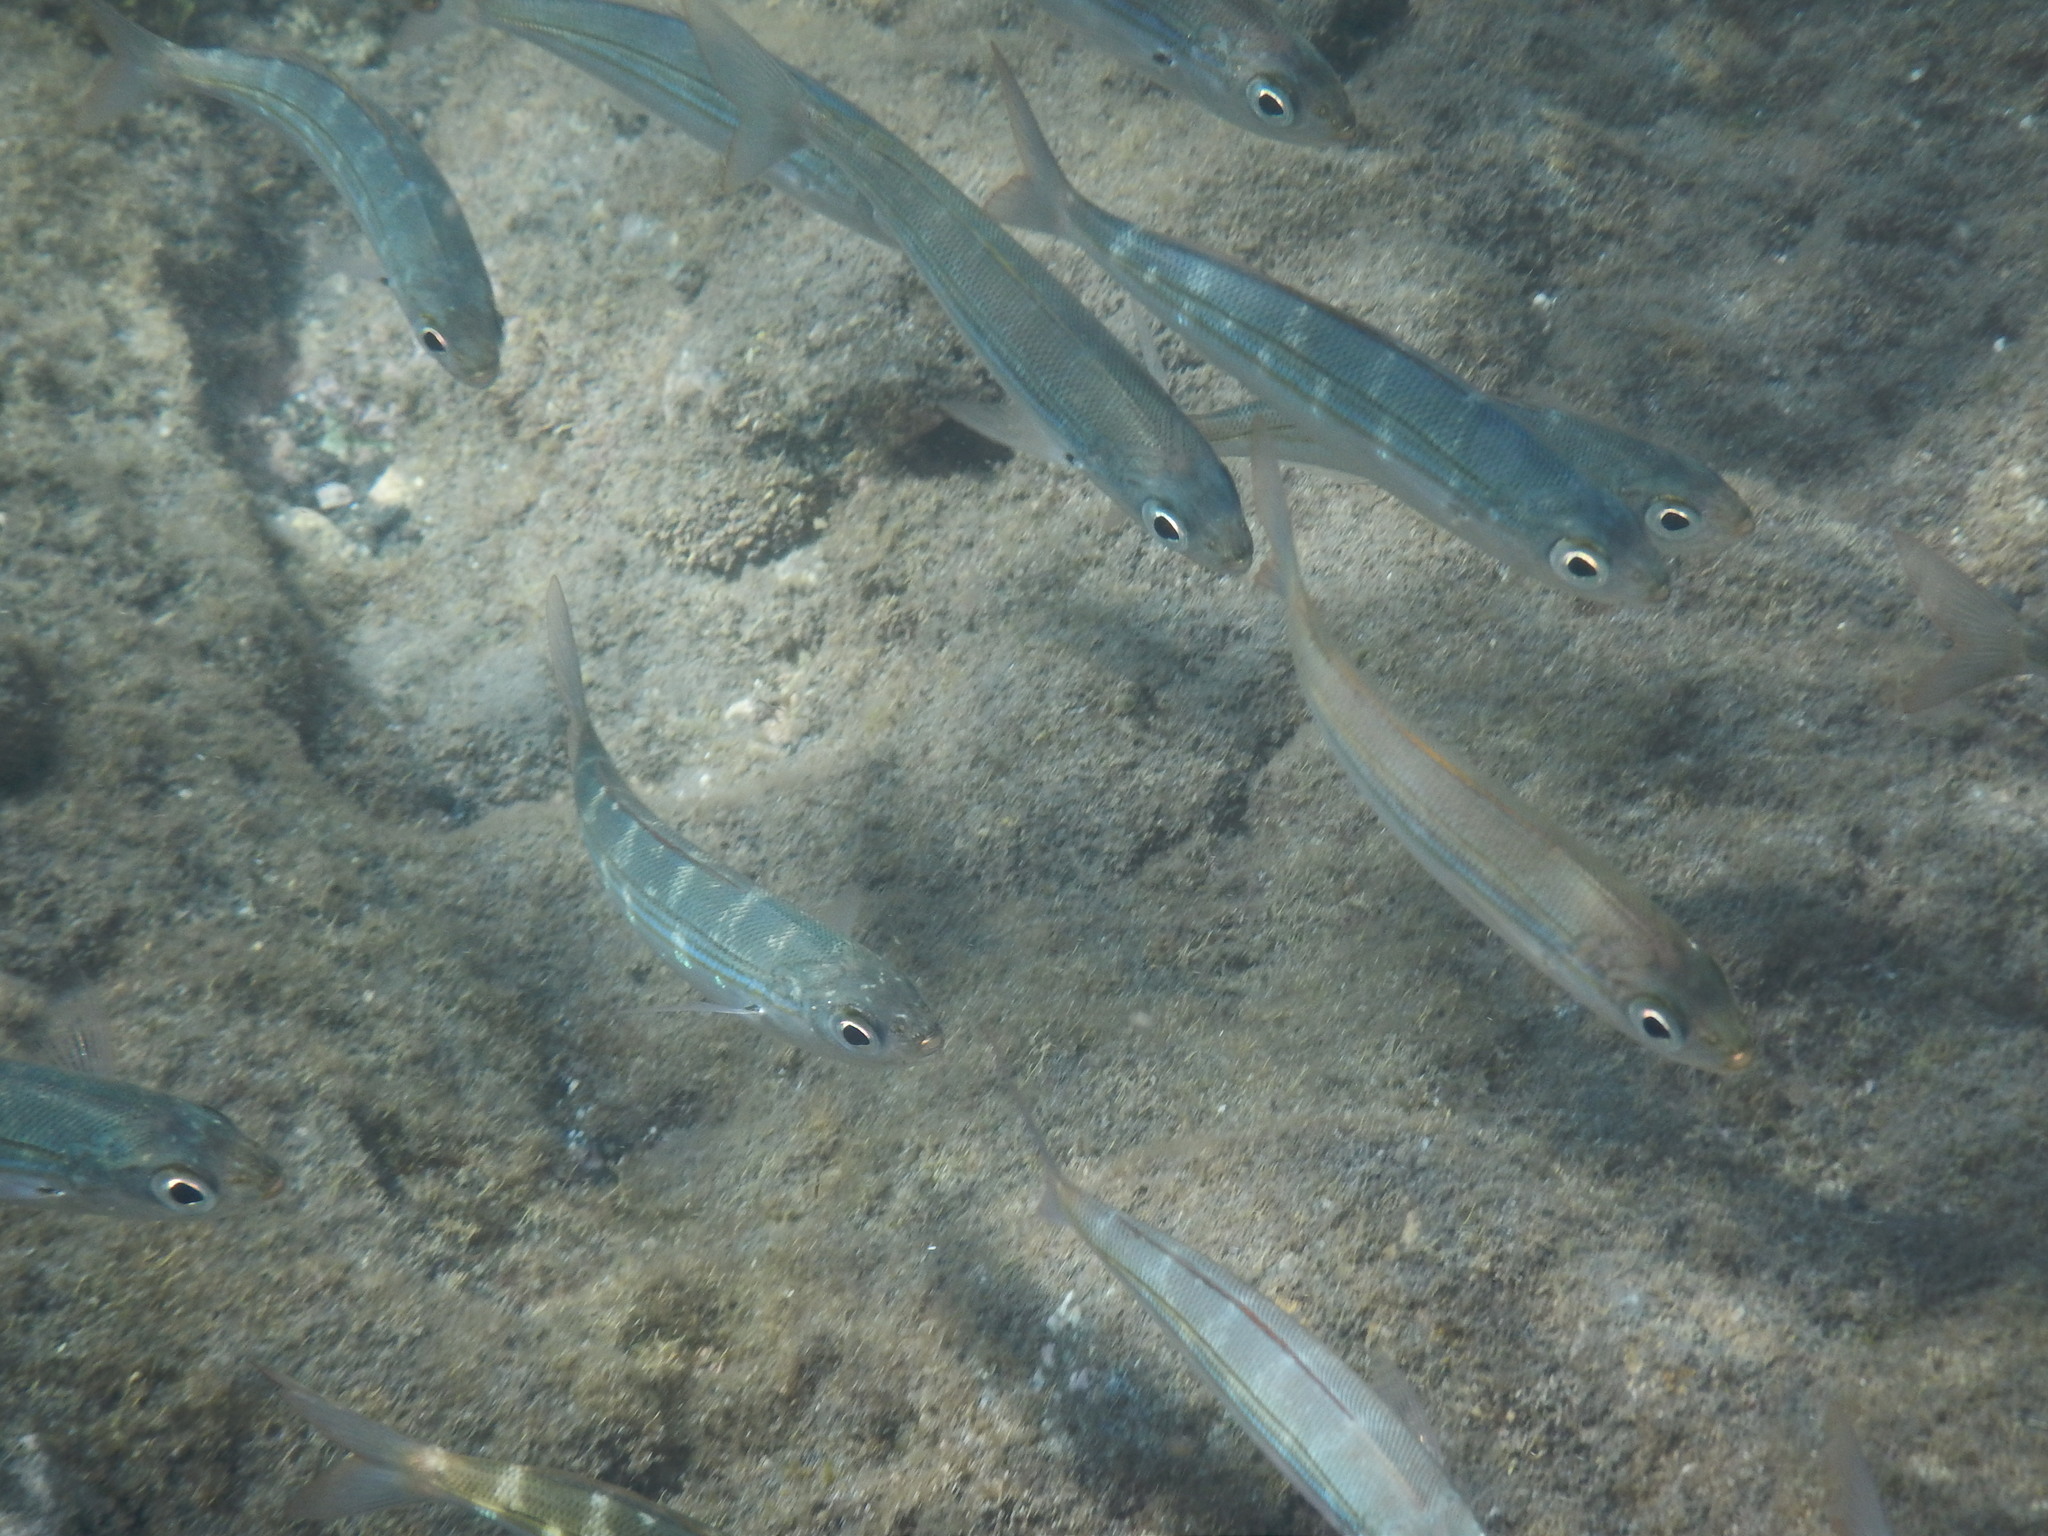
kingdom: Animalia
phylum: Chordata
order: Perciformes
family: Sparidae
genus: Boops
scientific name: Boops boops
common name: Bogue
